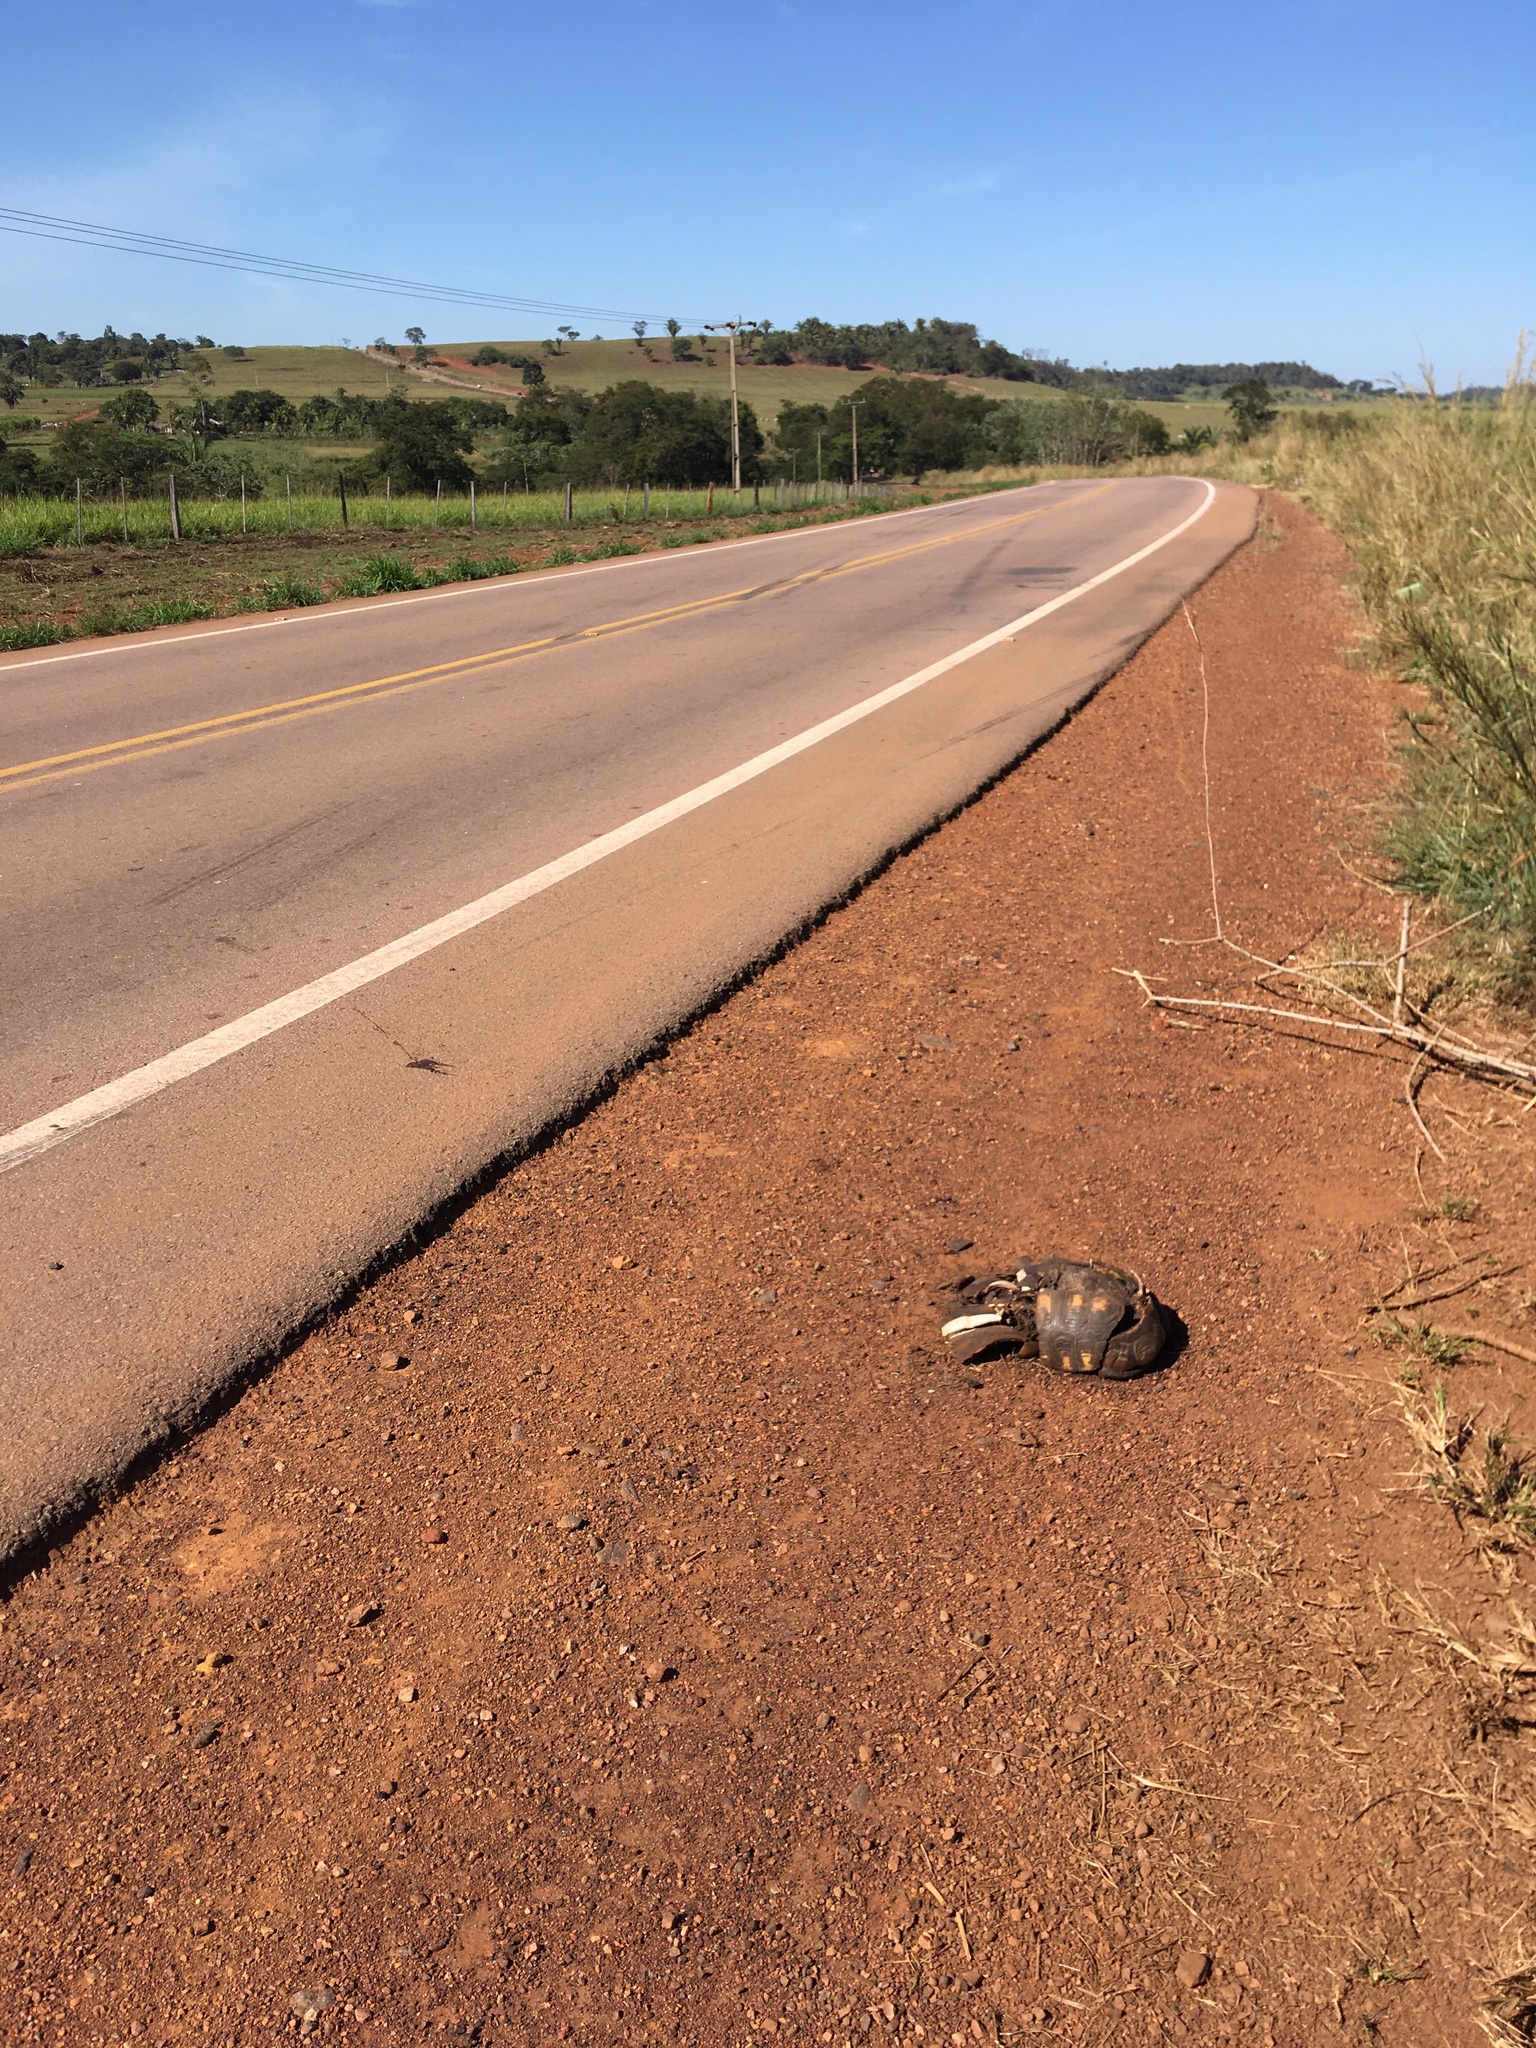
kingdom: Animalia
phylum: Chordata
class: Testudines
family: Testudinidae
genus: Chelonoidis
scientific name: Chelonoidis denticulatus
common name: Yellow-footed tortoise
